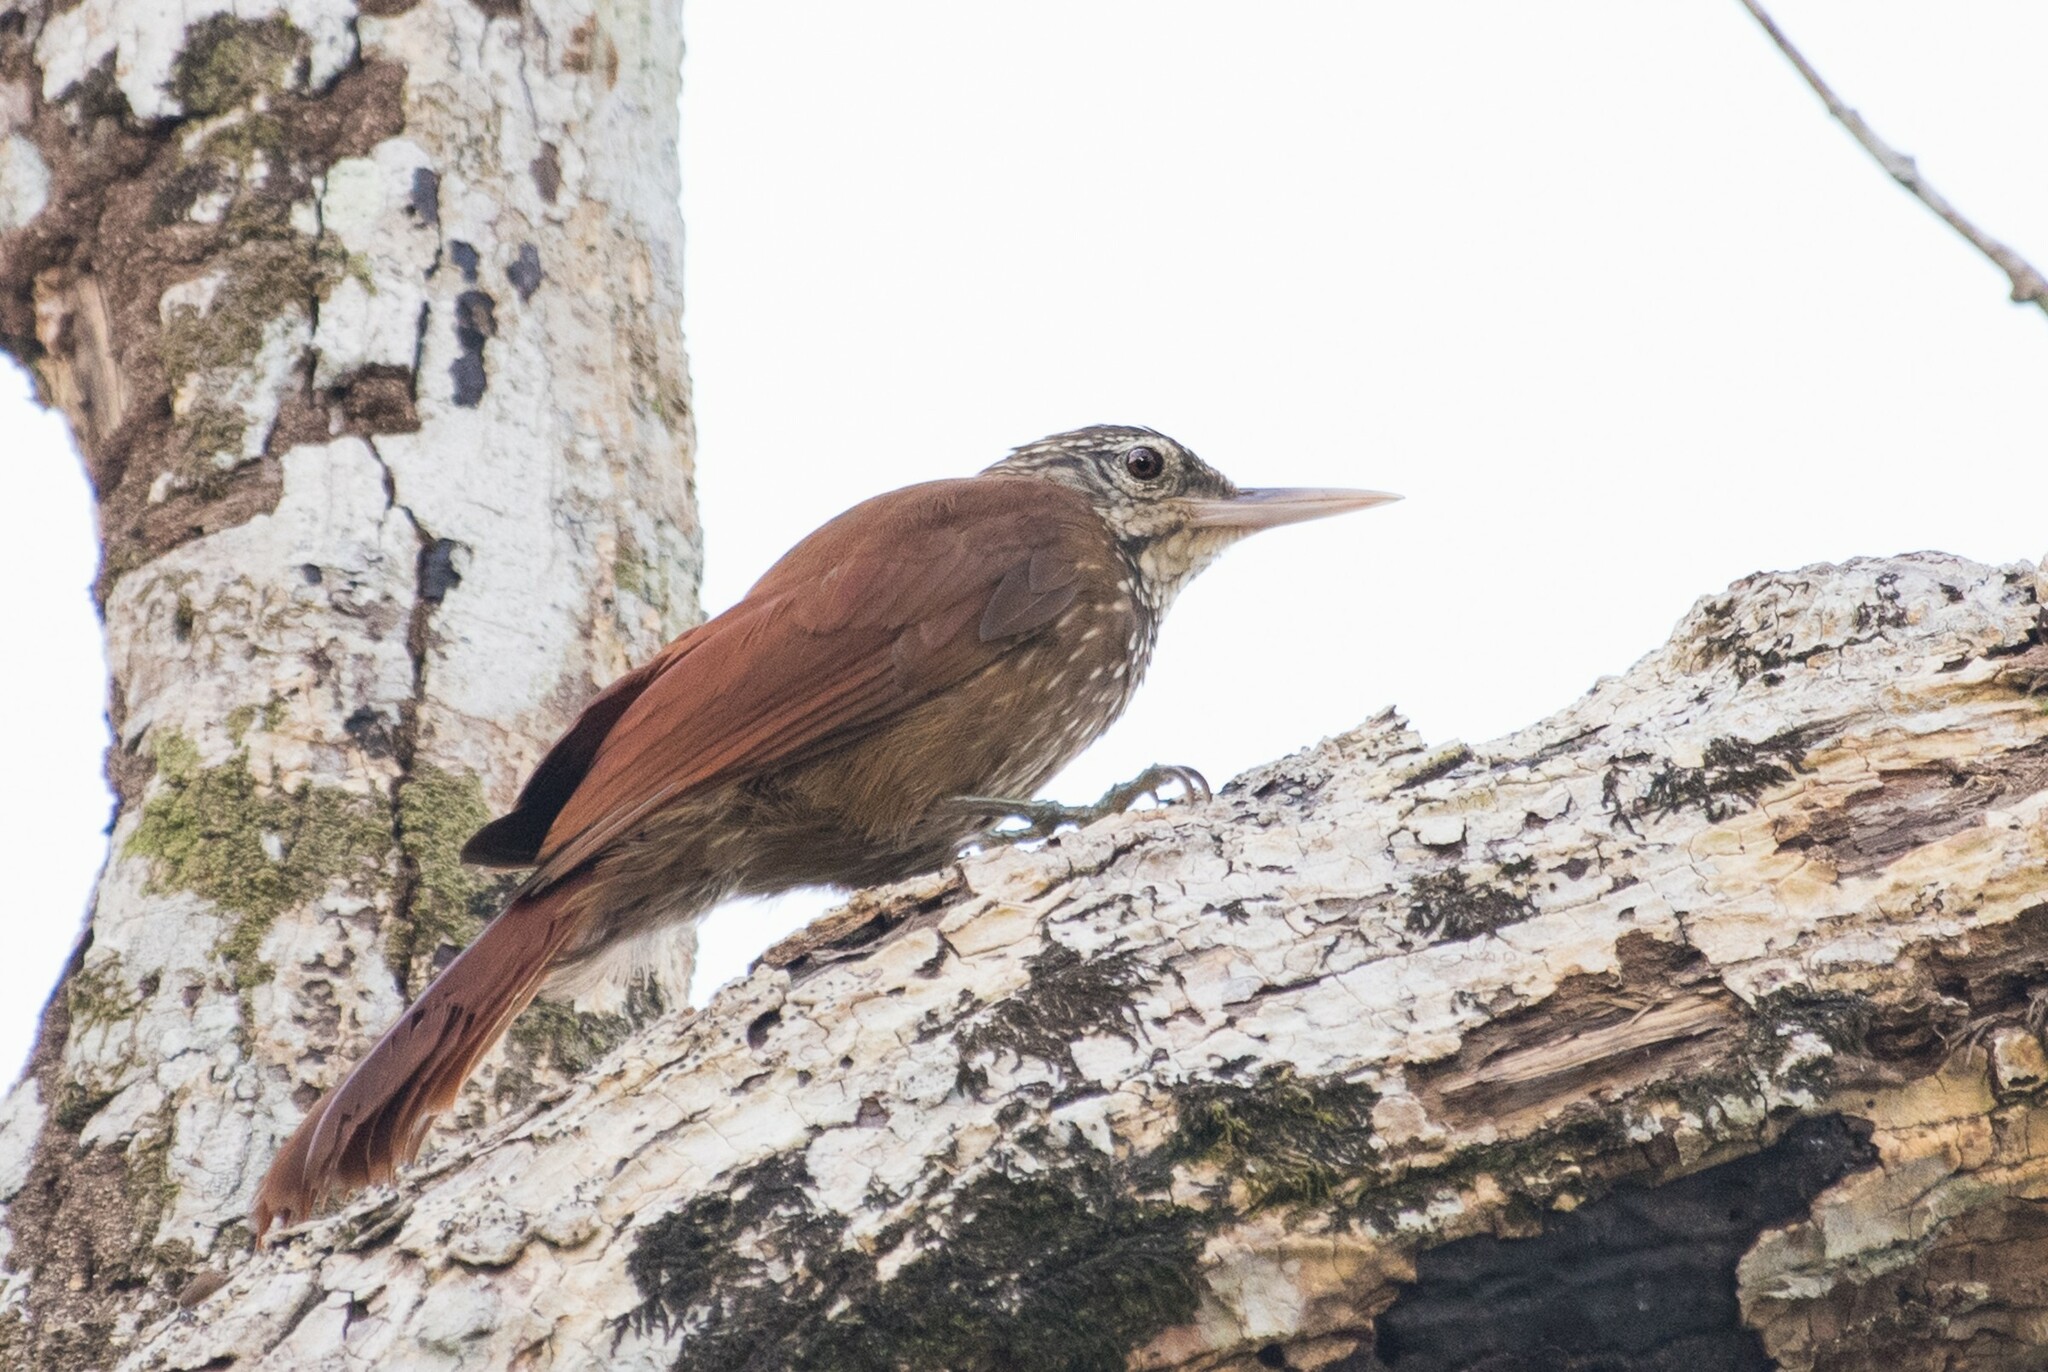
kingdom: Animalia
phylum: Chordata
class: Aves
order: Passeriformes
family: Furnariidae
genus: Xiphorhynchus
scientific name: Xiphorhynchus picus
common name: Straight-billed woodcreeper
